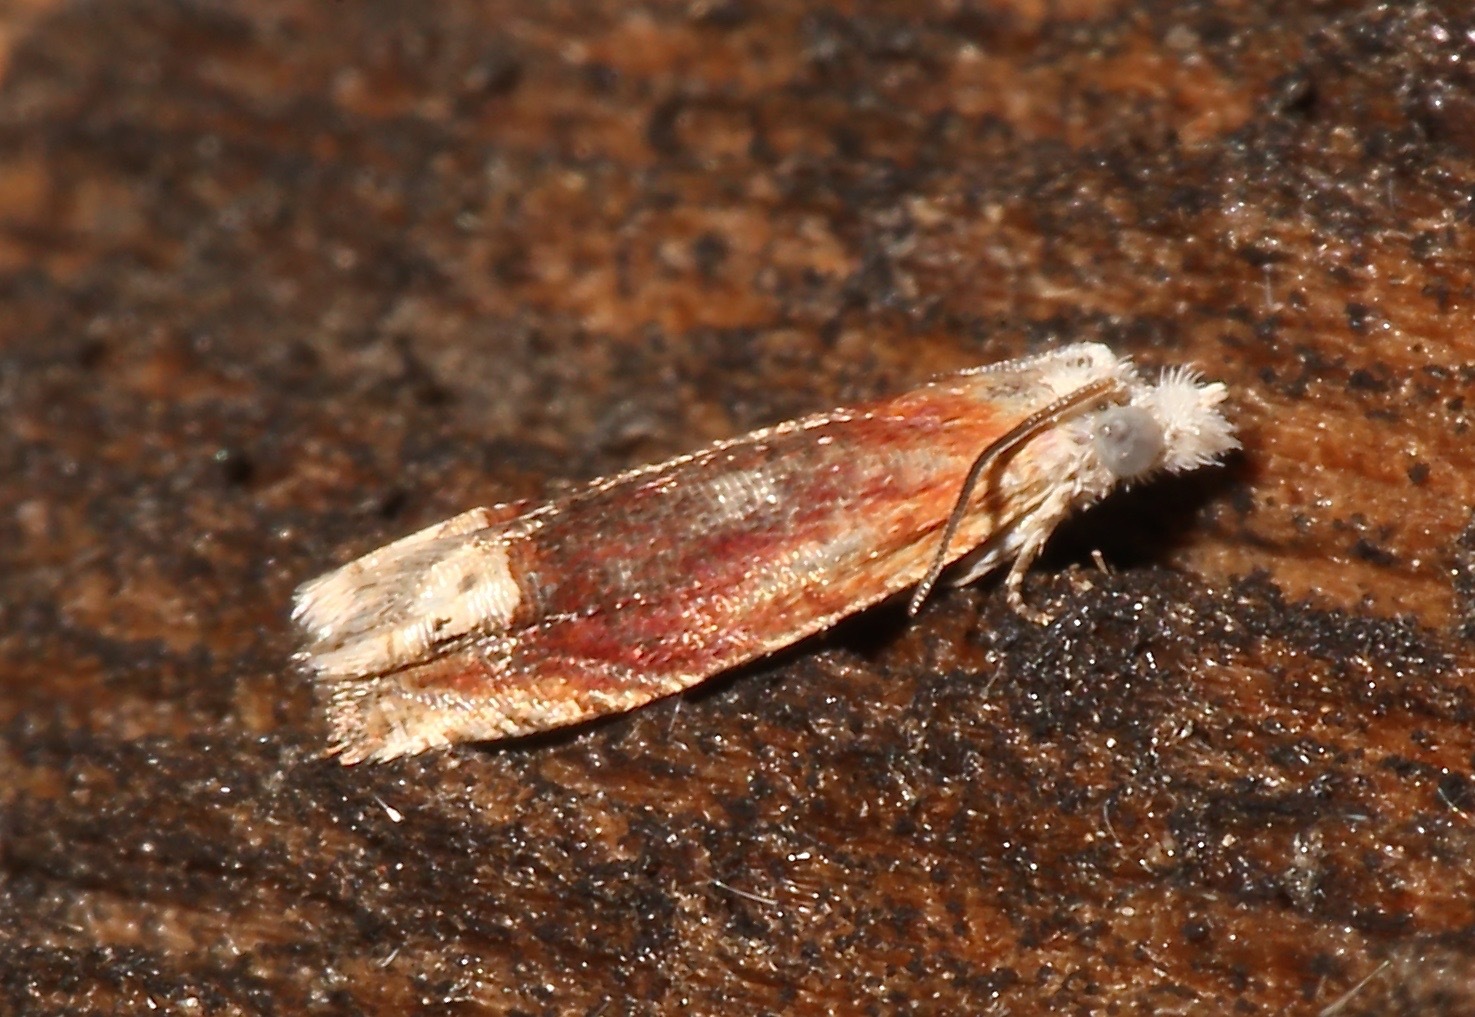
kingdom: Animalia
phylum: Arthropoda
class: Insecta
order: Lepidoptera
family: Tortricidae
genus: Eucosma
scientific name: Eucosma raracana
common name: Reddish eucosma moth
